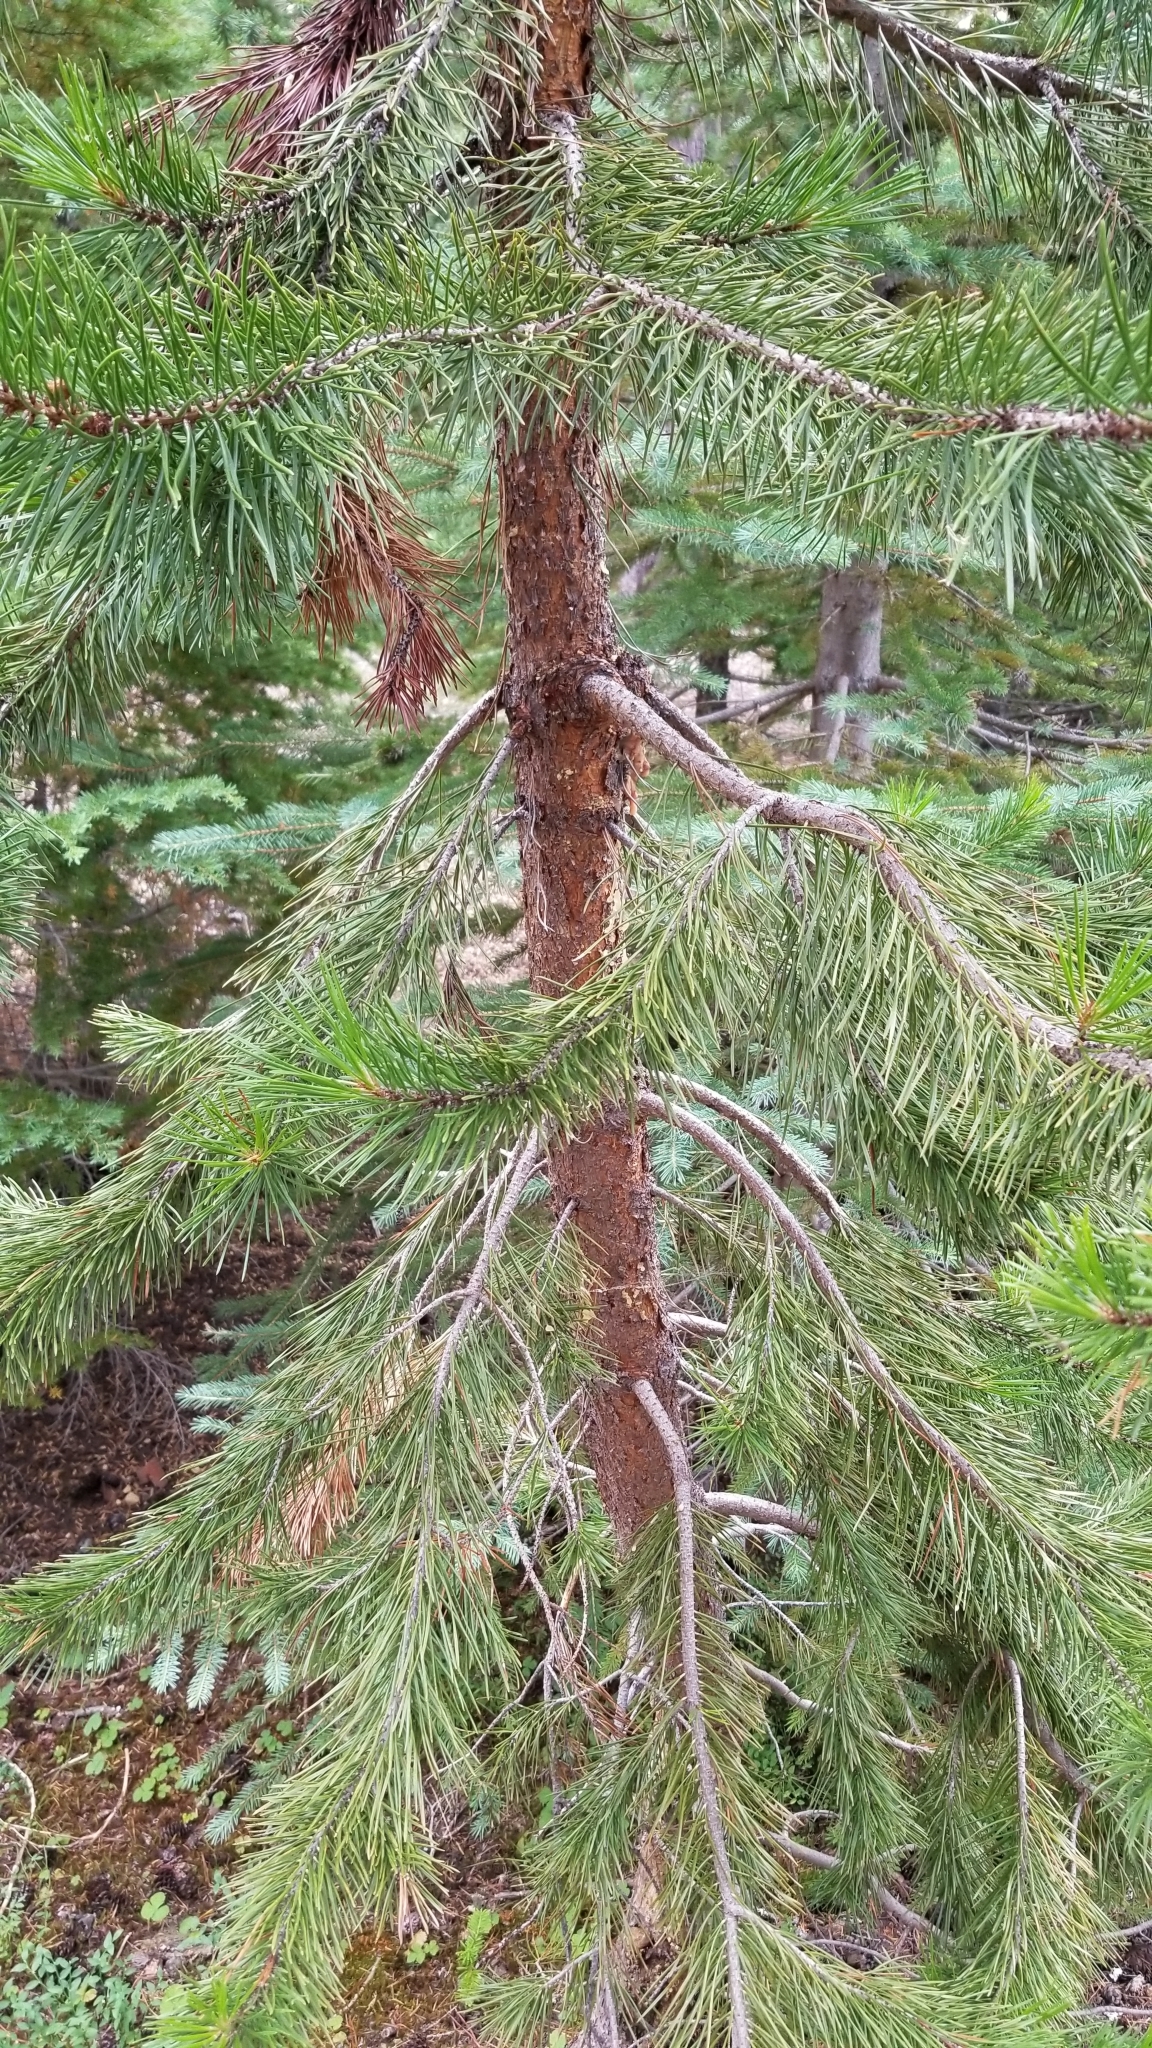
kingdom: Plantae
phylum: Tracheophyta
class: Pinopsida
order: Pinales
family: Pinaceae
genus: Pinus
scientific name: Pinus contorta
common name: Lodgepole pine
